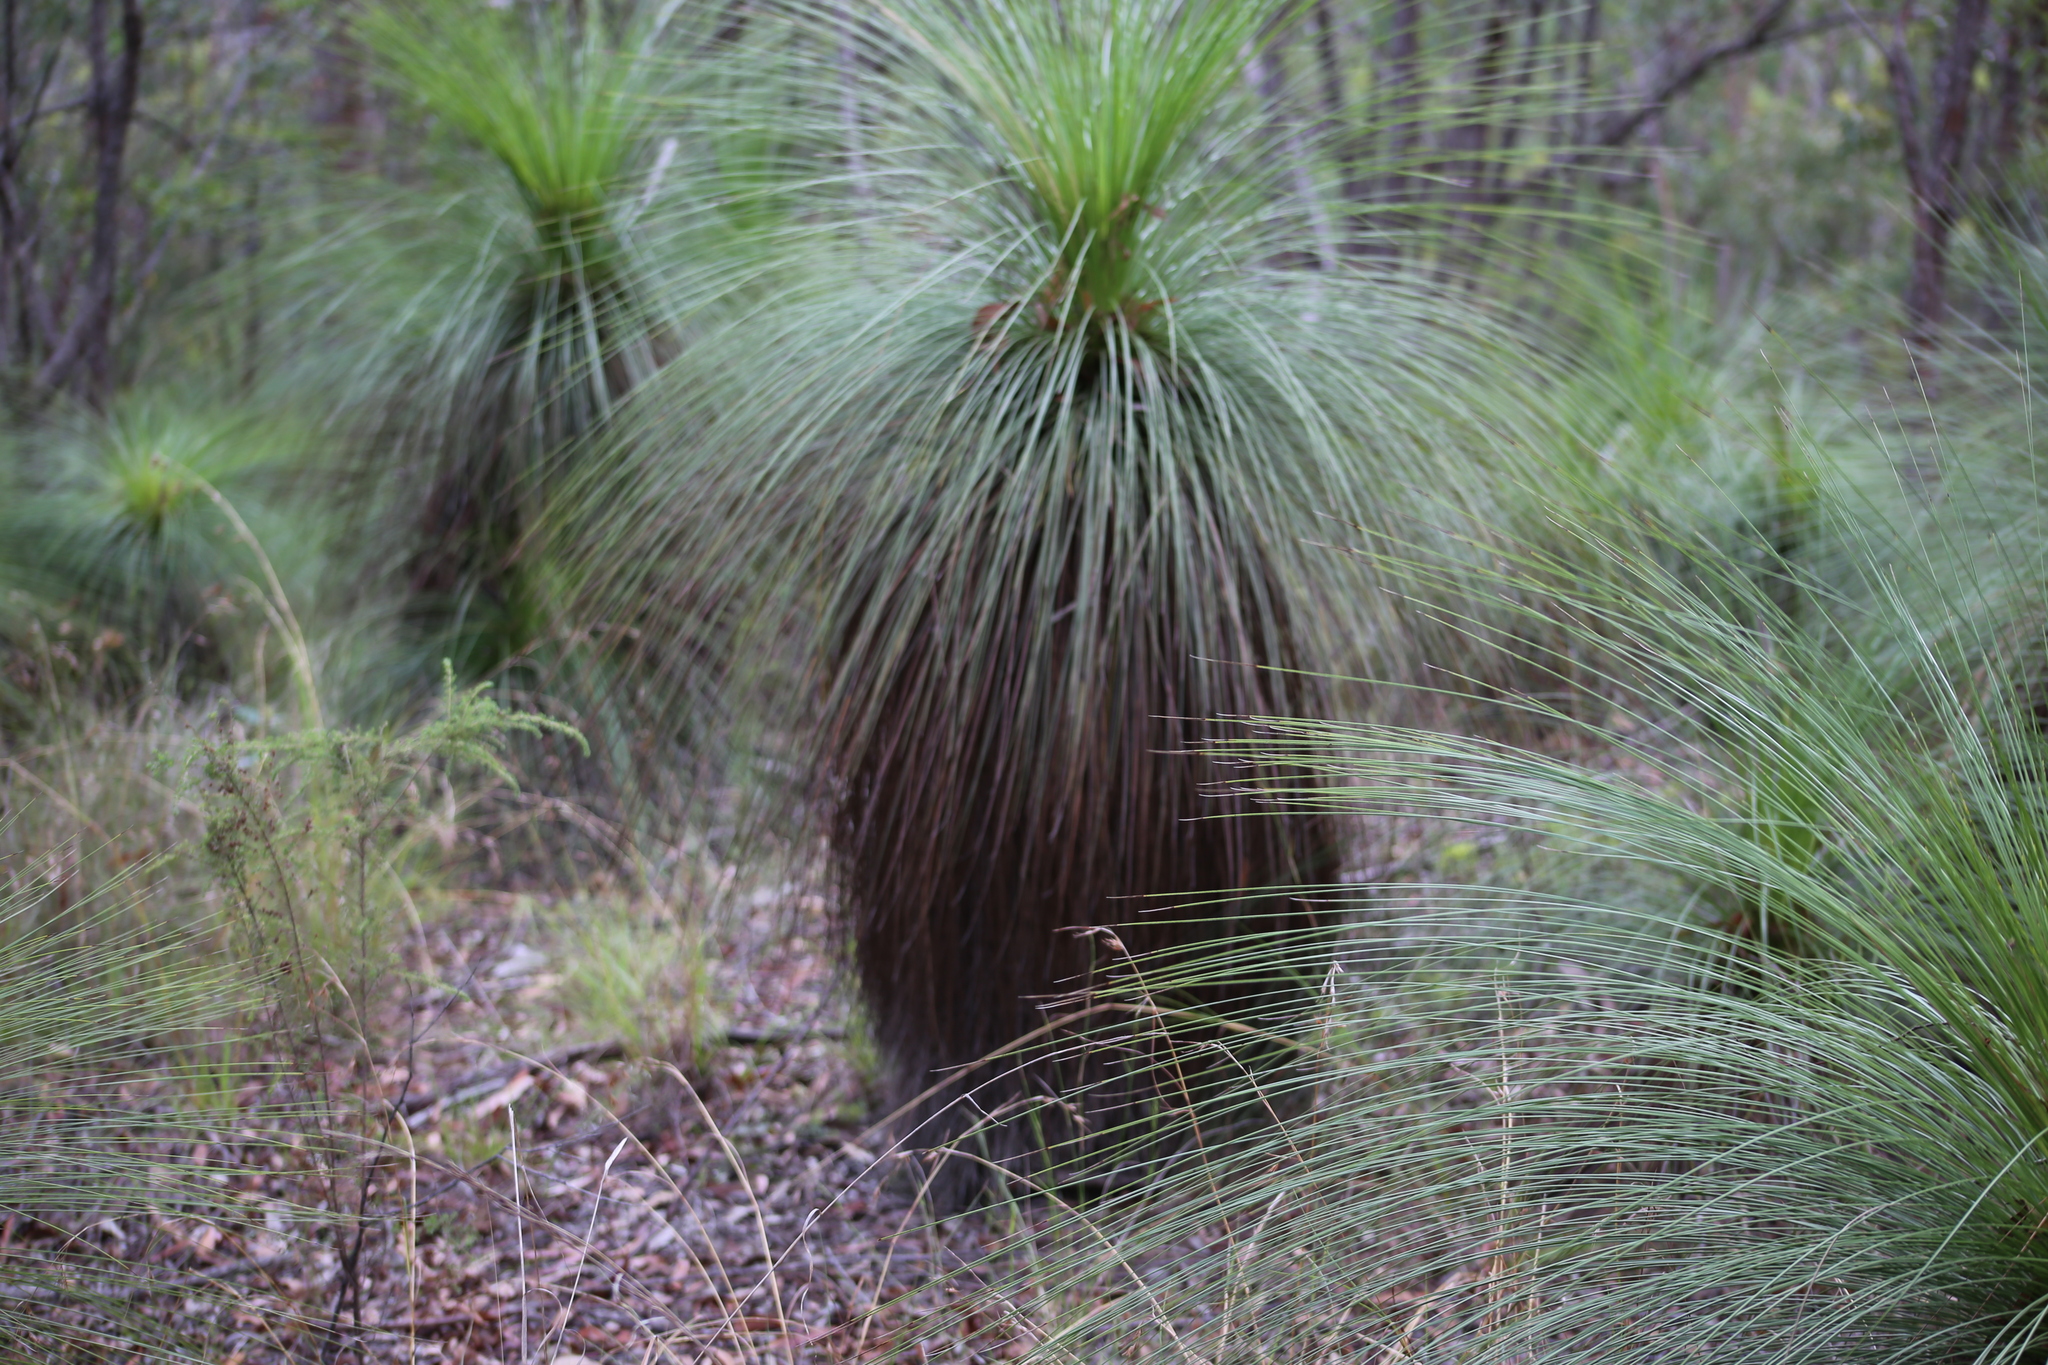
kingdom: Plantae
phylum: Tracheophyta
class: Liliopsida
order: Asparagales
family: Asphodelaceae
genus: Xanthorrhoea
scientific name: Xanthorrhoea johnsonii
